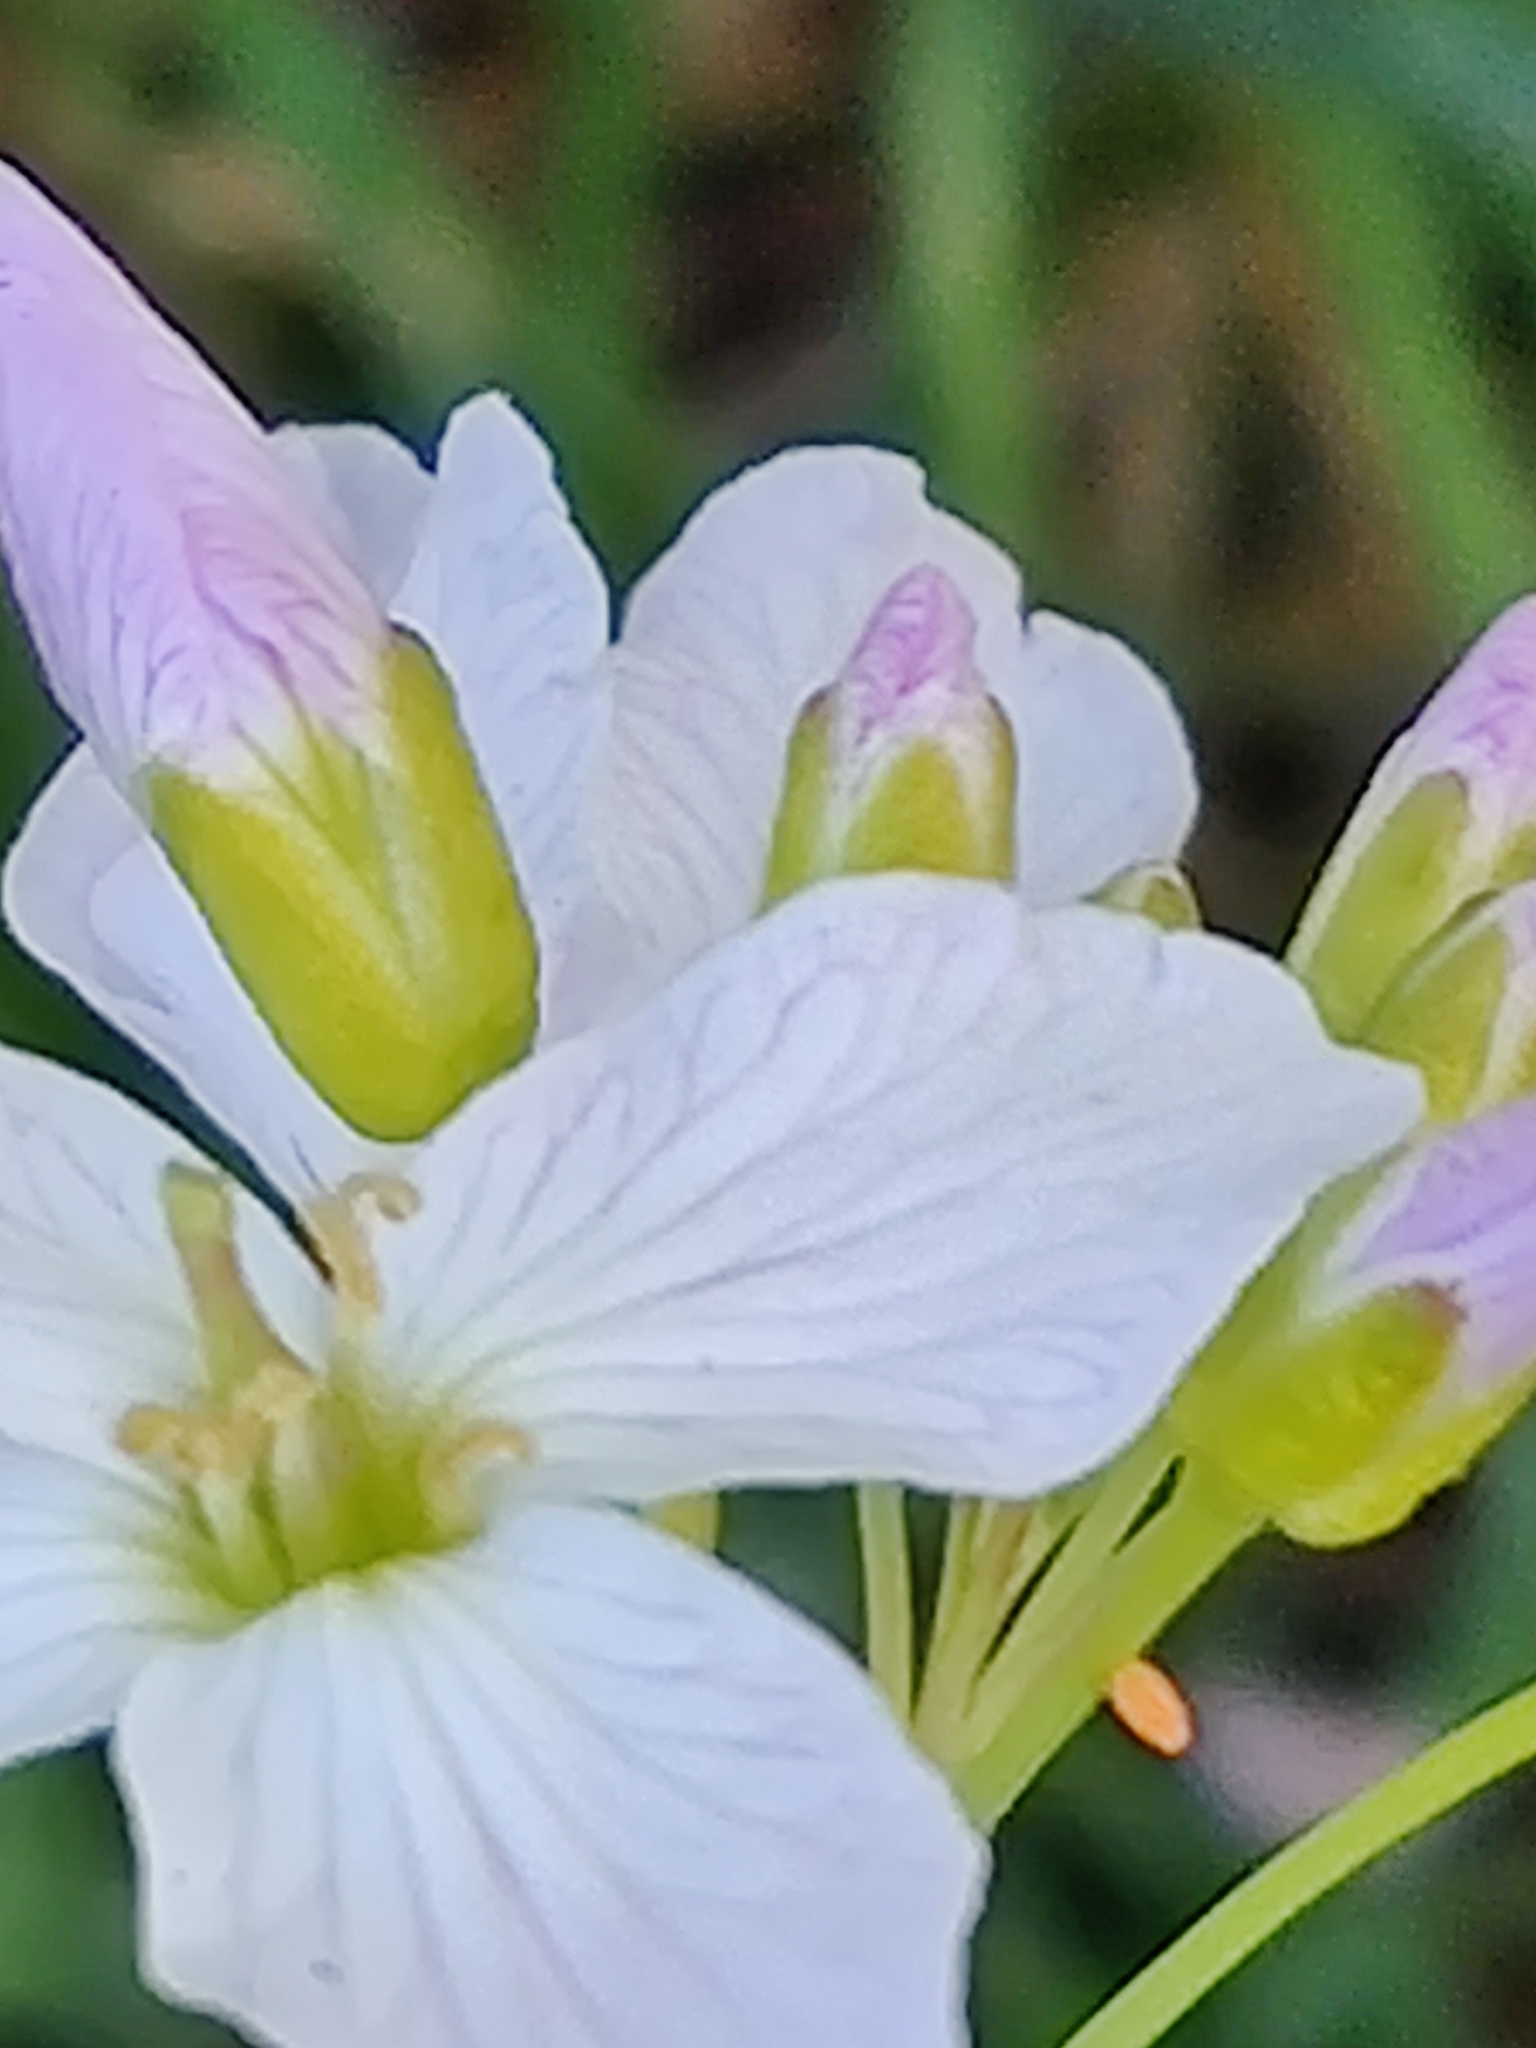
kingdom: Animalia
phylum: Arthropoda
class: Insecta
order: Lepidoptera
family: Pieridae
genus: Anthocharis
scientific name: Anthocharis cardamines
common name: Orange-tip
